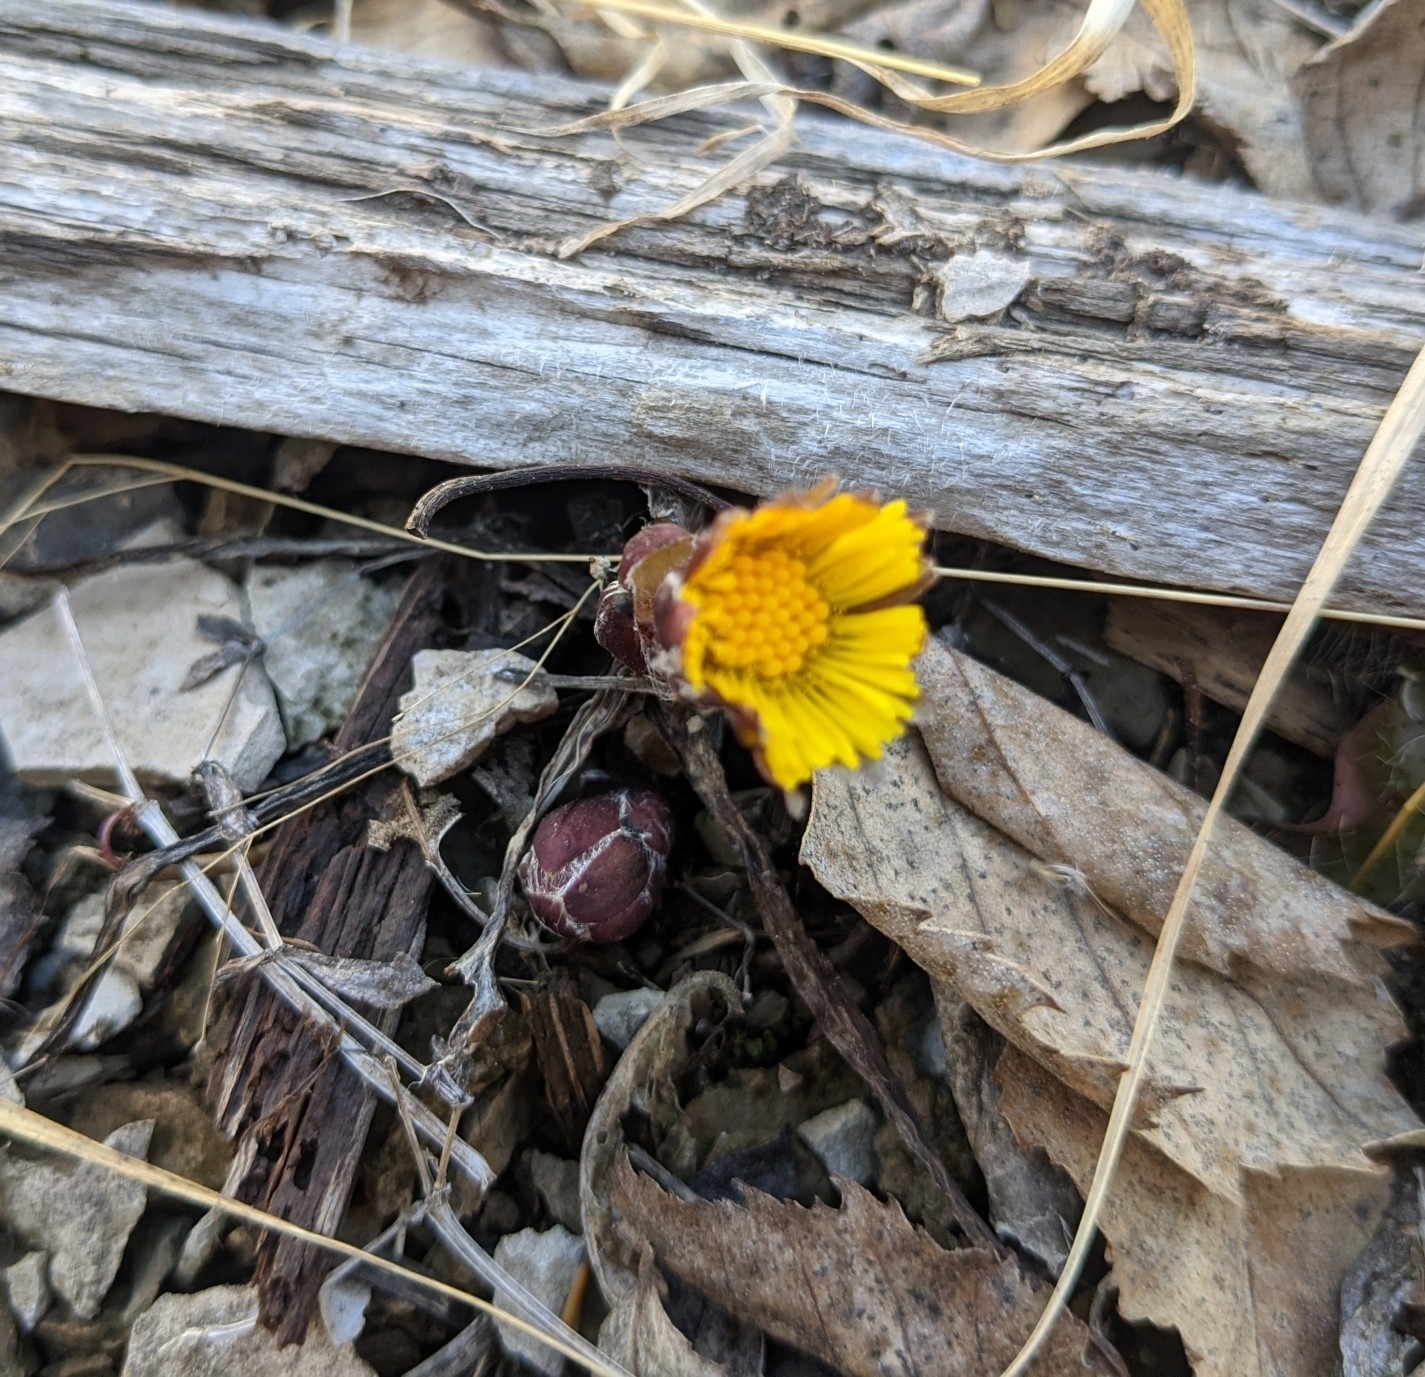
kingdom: Plantae
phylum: Tracheophyta
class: Magnoliopsida
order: Asterales
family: Asteraceae
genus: Tussilago
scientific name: Tussilago farfara
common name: Coltsfoot
